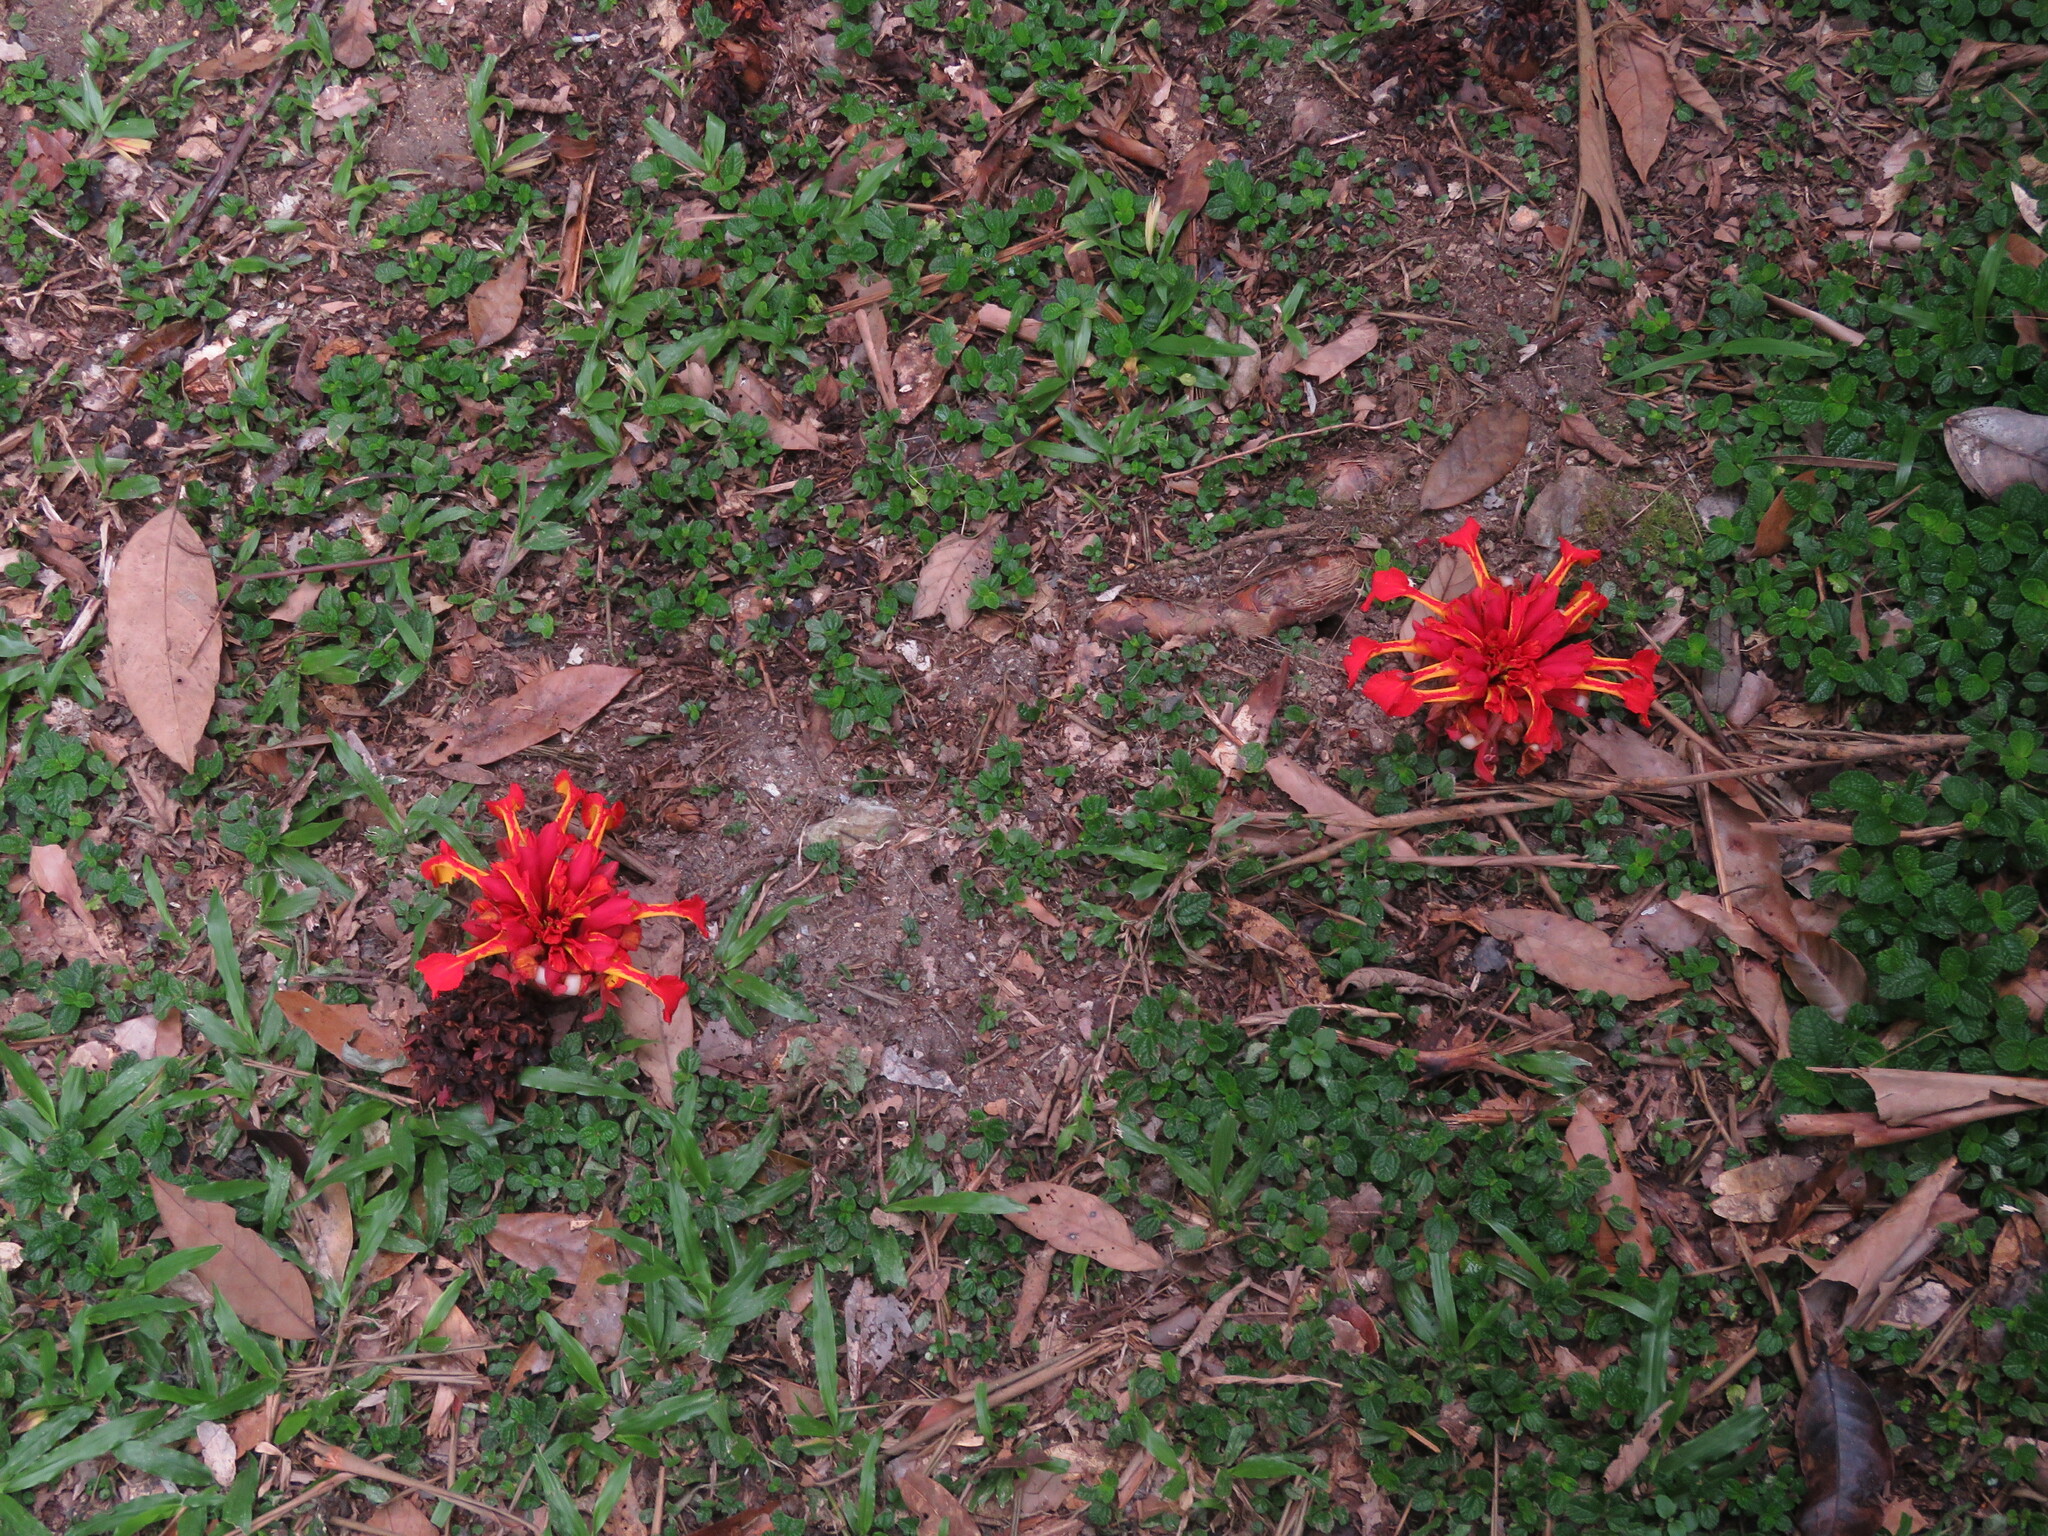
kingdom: Plantae
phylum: Tracheophyta
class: Liliopsida
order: Zingiberales
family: Zingiberaceae
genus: Etlingera
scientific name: Etlingera coccinea
